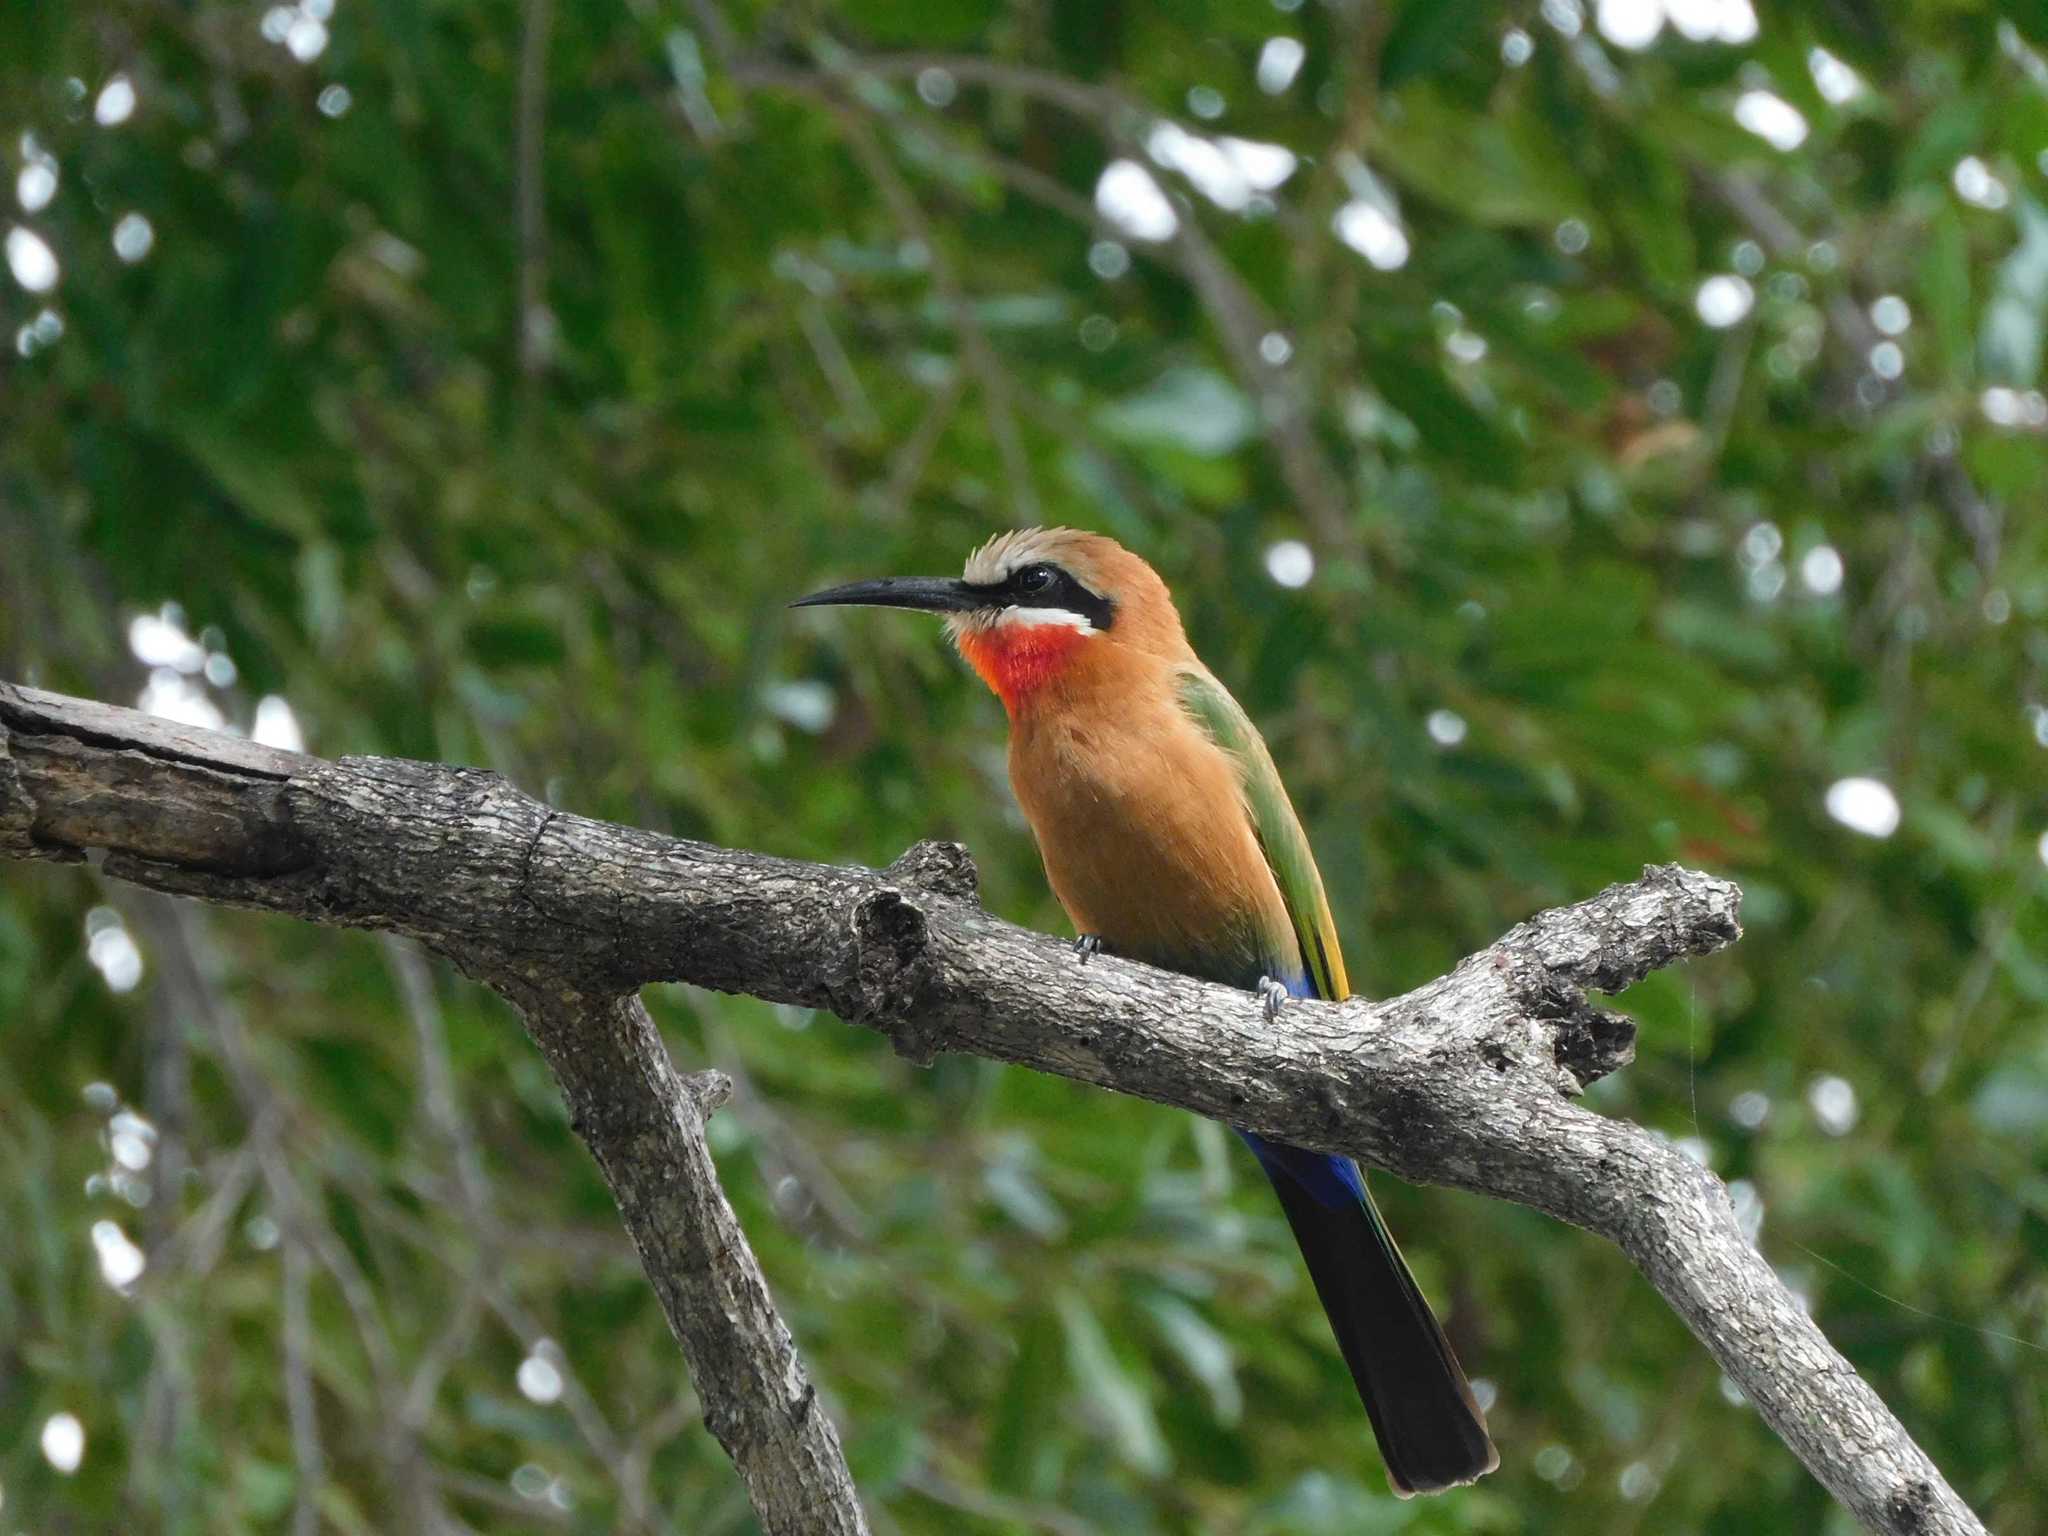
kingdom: Animalia
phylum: Chordata
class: Aves
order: Coraciiformes
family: Meropidae
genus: Merops
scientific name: Merops bullockoides
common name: White-fronted bee-eater
